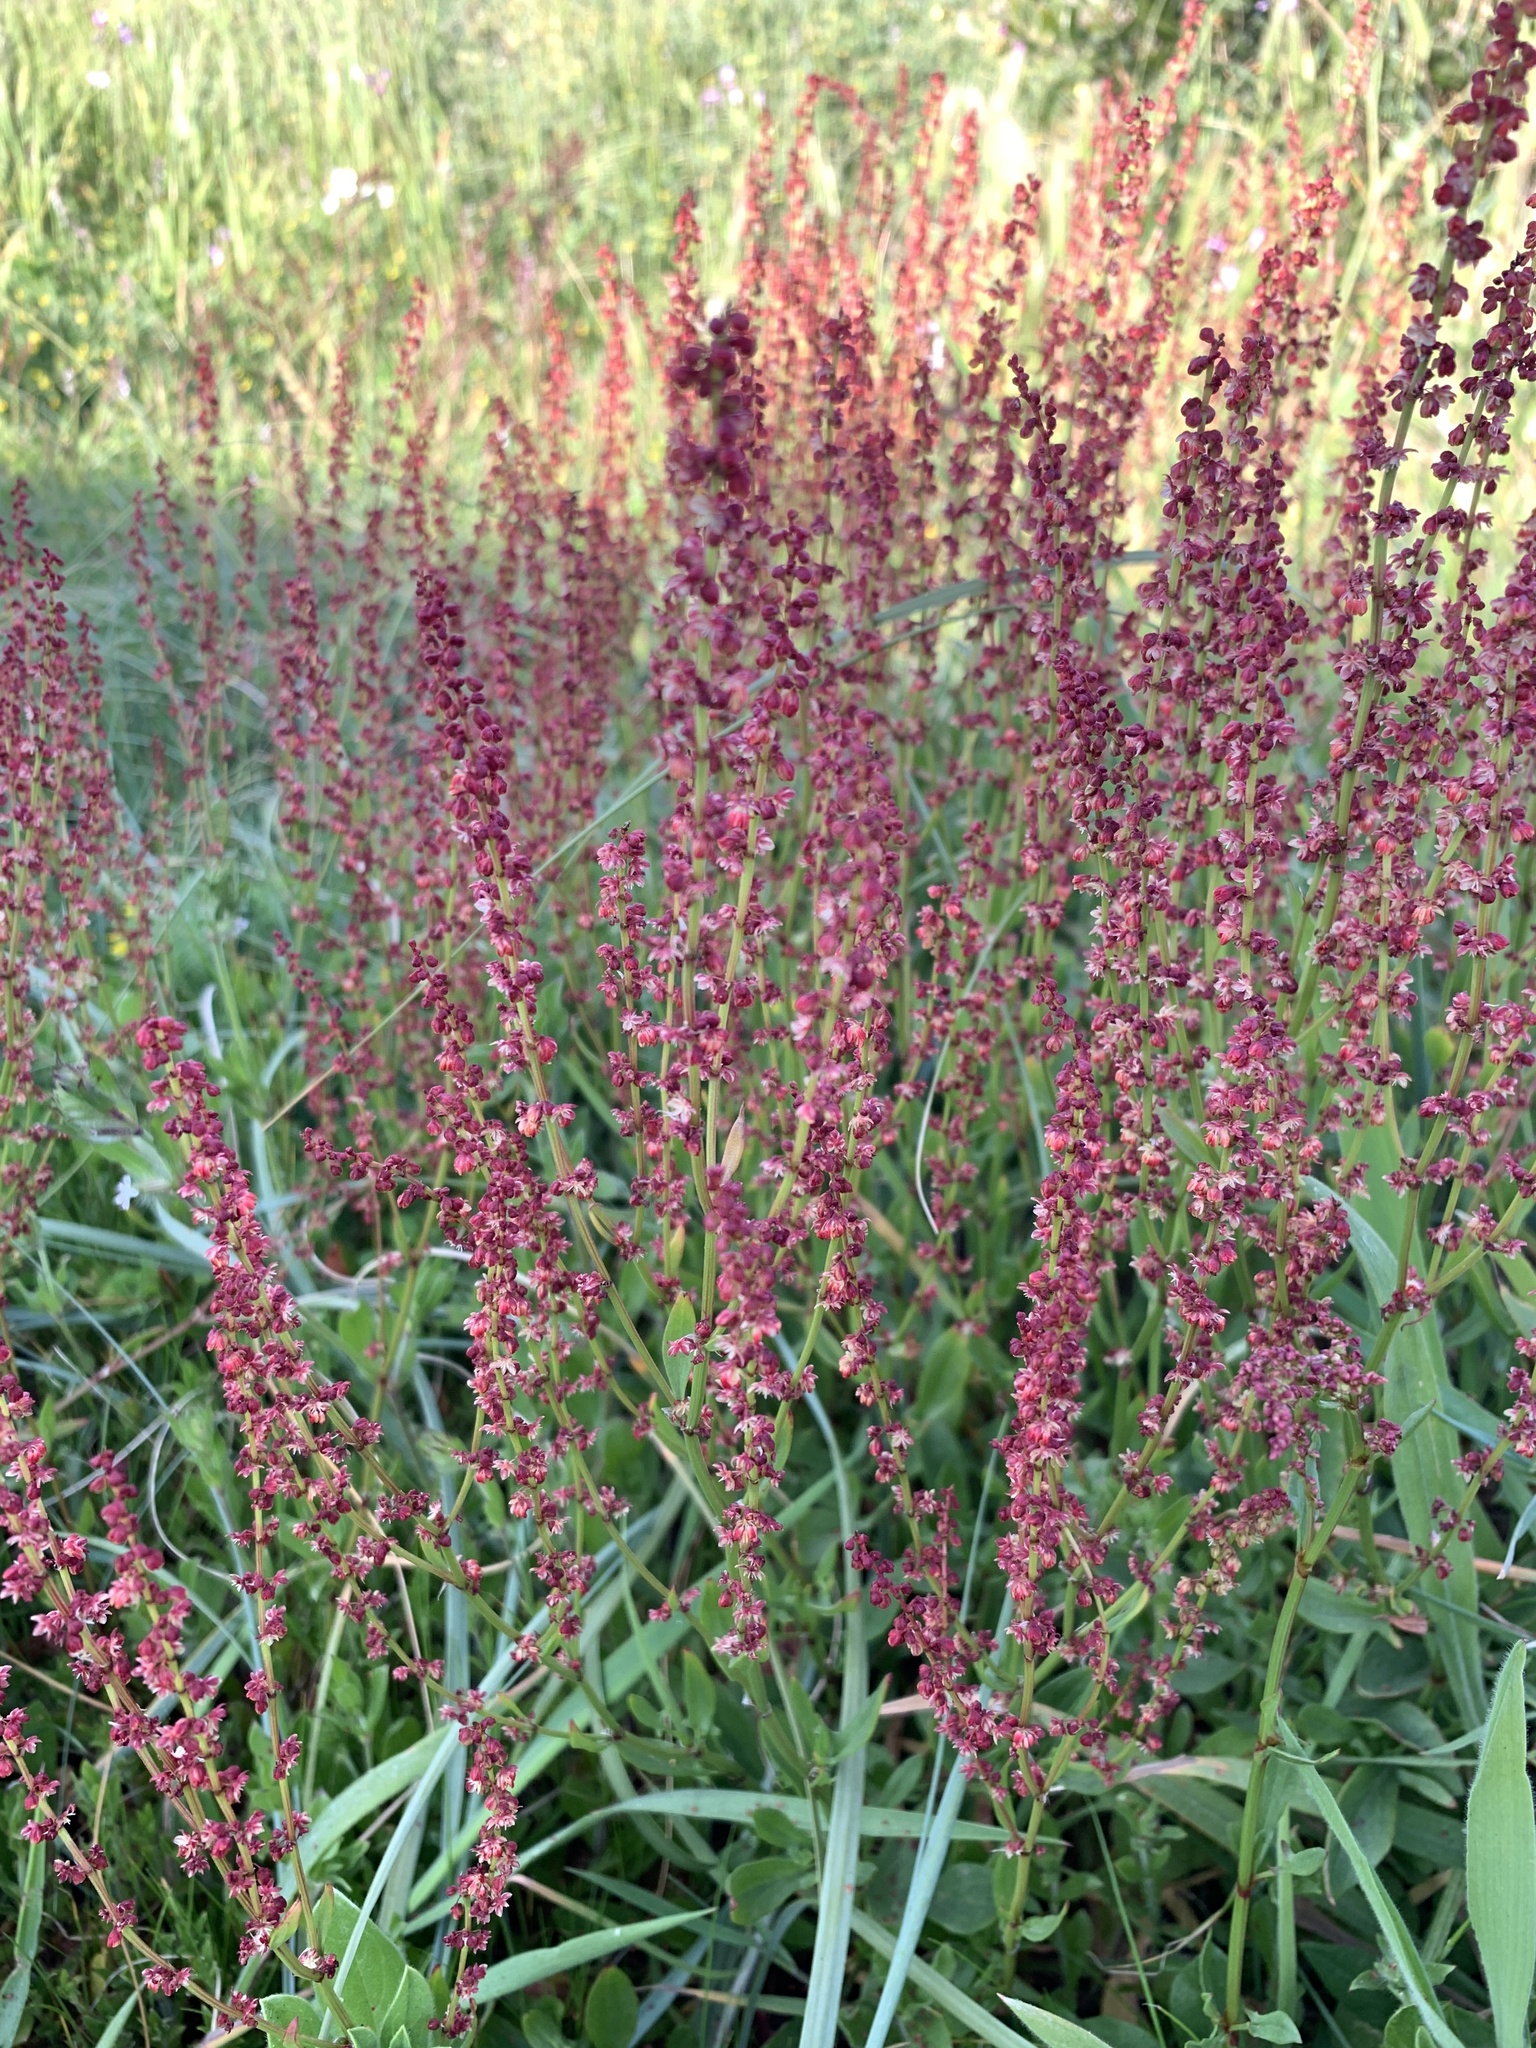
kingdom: Plantae
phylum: Tracheophyta
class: Magnoliopsida
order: Caryophyllales
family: Polygonaceae
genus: Rumex
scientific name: Rumex acetosella
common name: Common sheep sorrel
